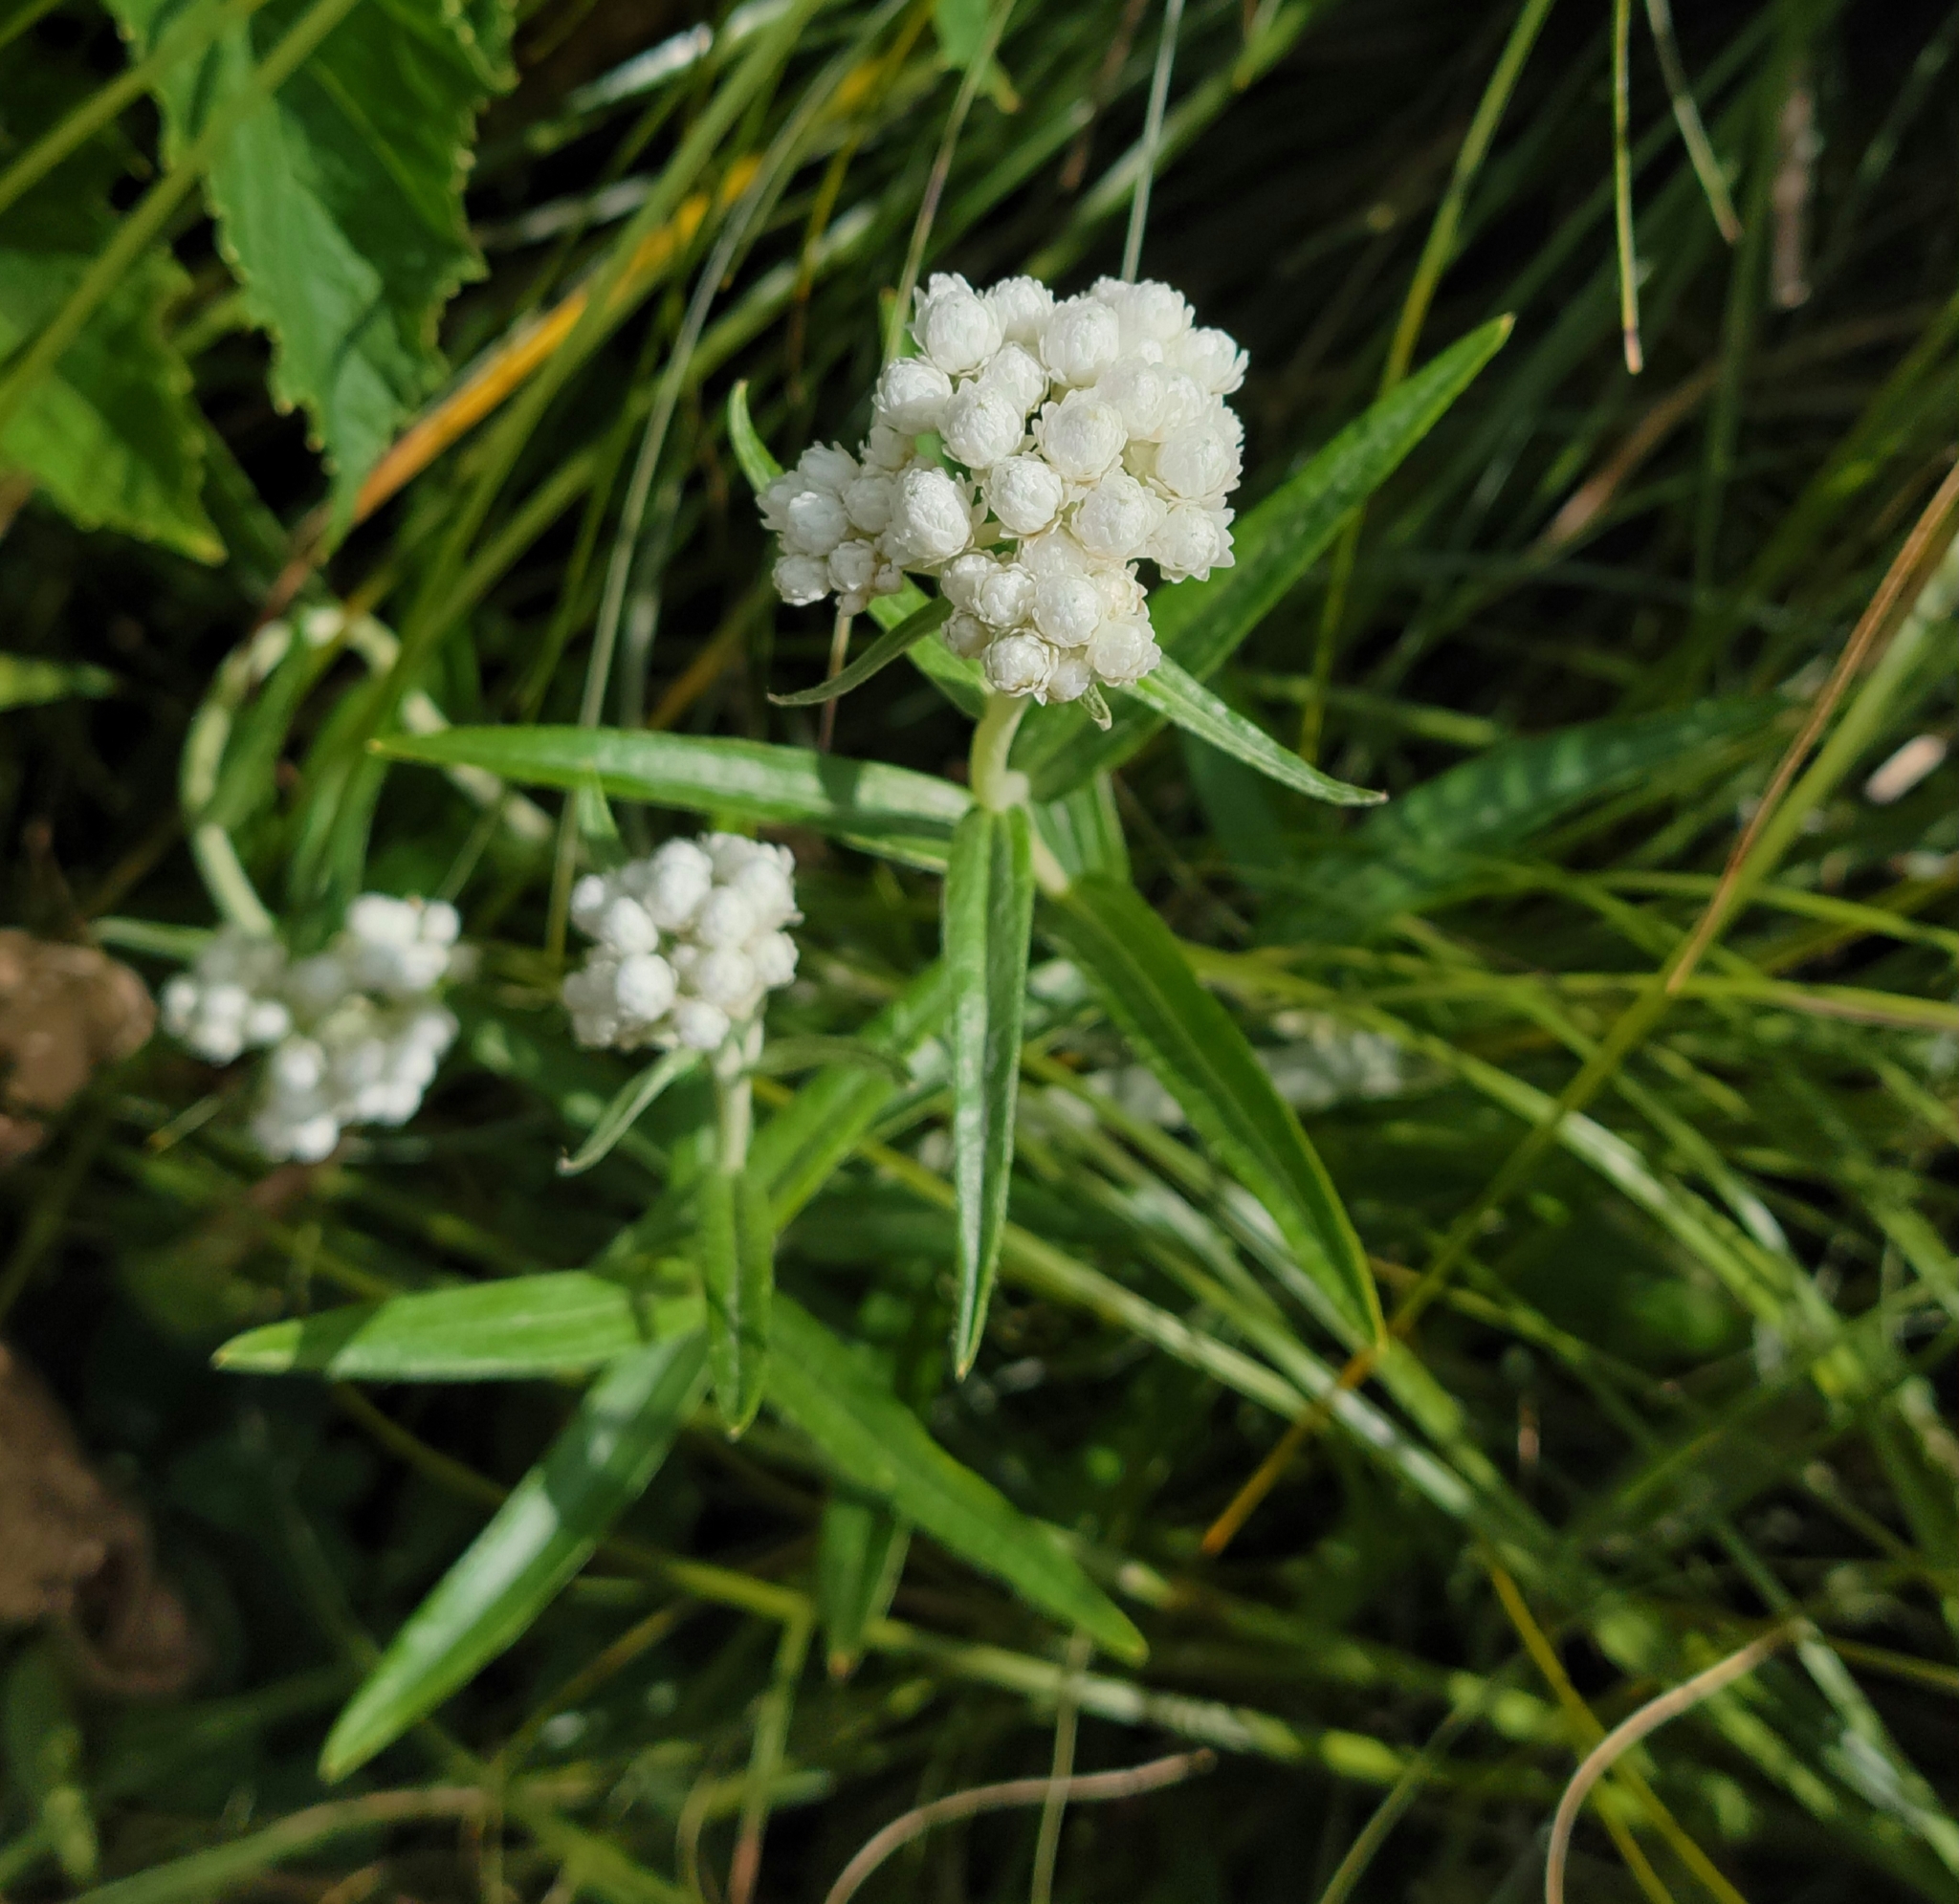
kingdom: Plantae
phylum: Tracheophyta
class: Magnoliopsida
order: Asterales
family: Asteraceae
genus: Anaphalis
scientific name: Anaphalis margaritacea
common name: Pearly everlasting
